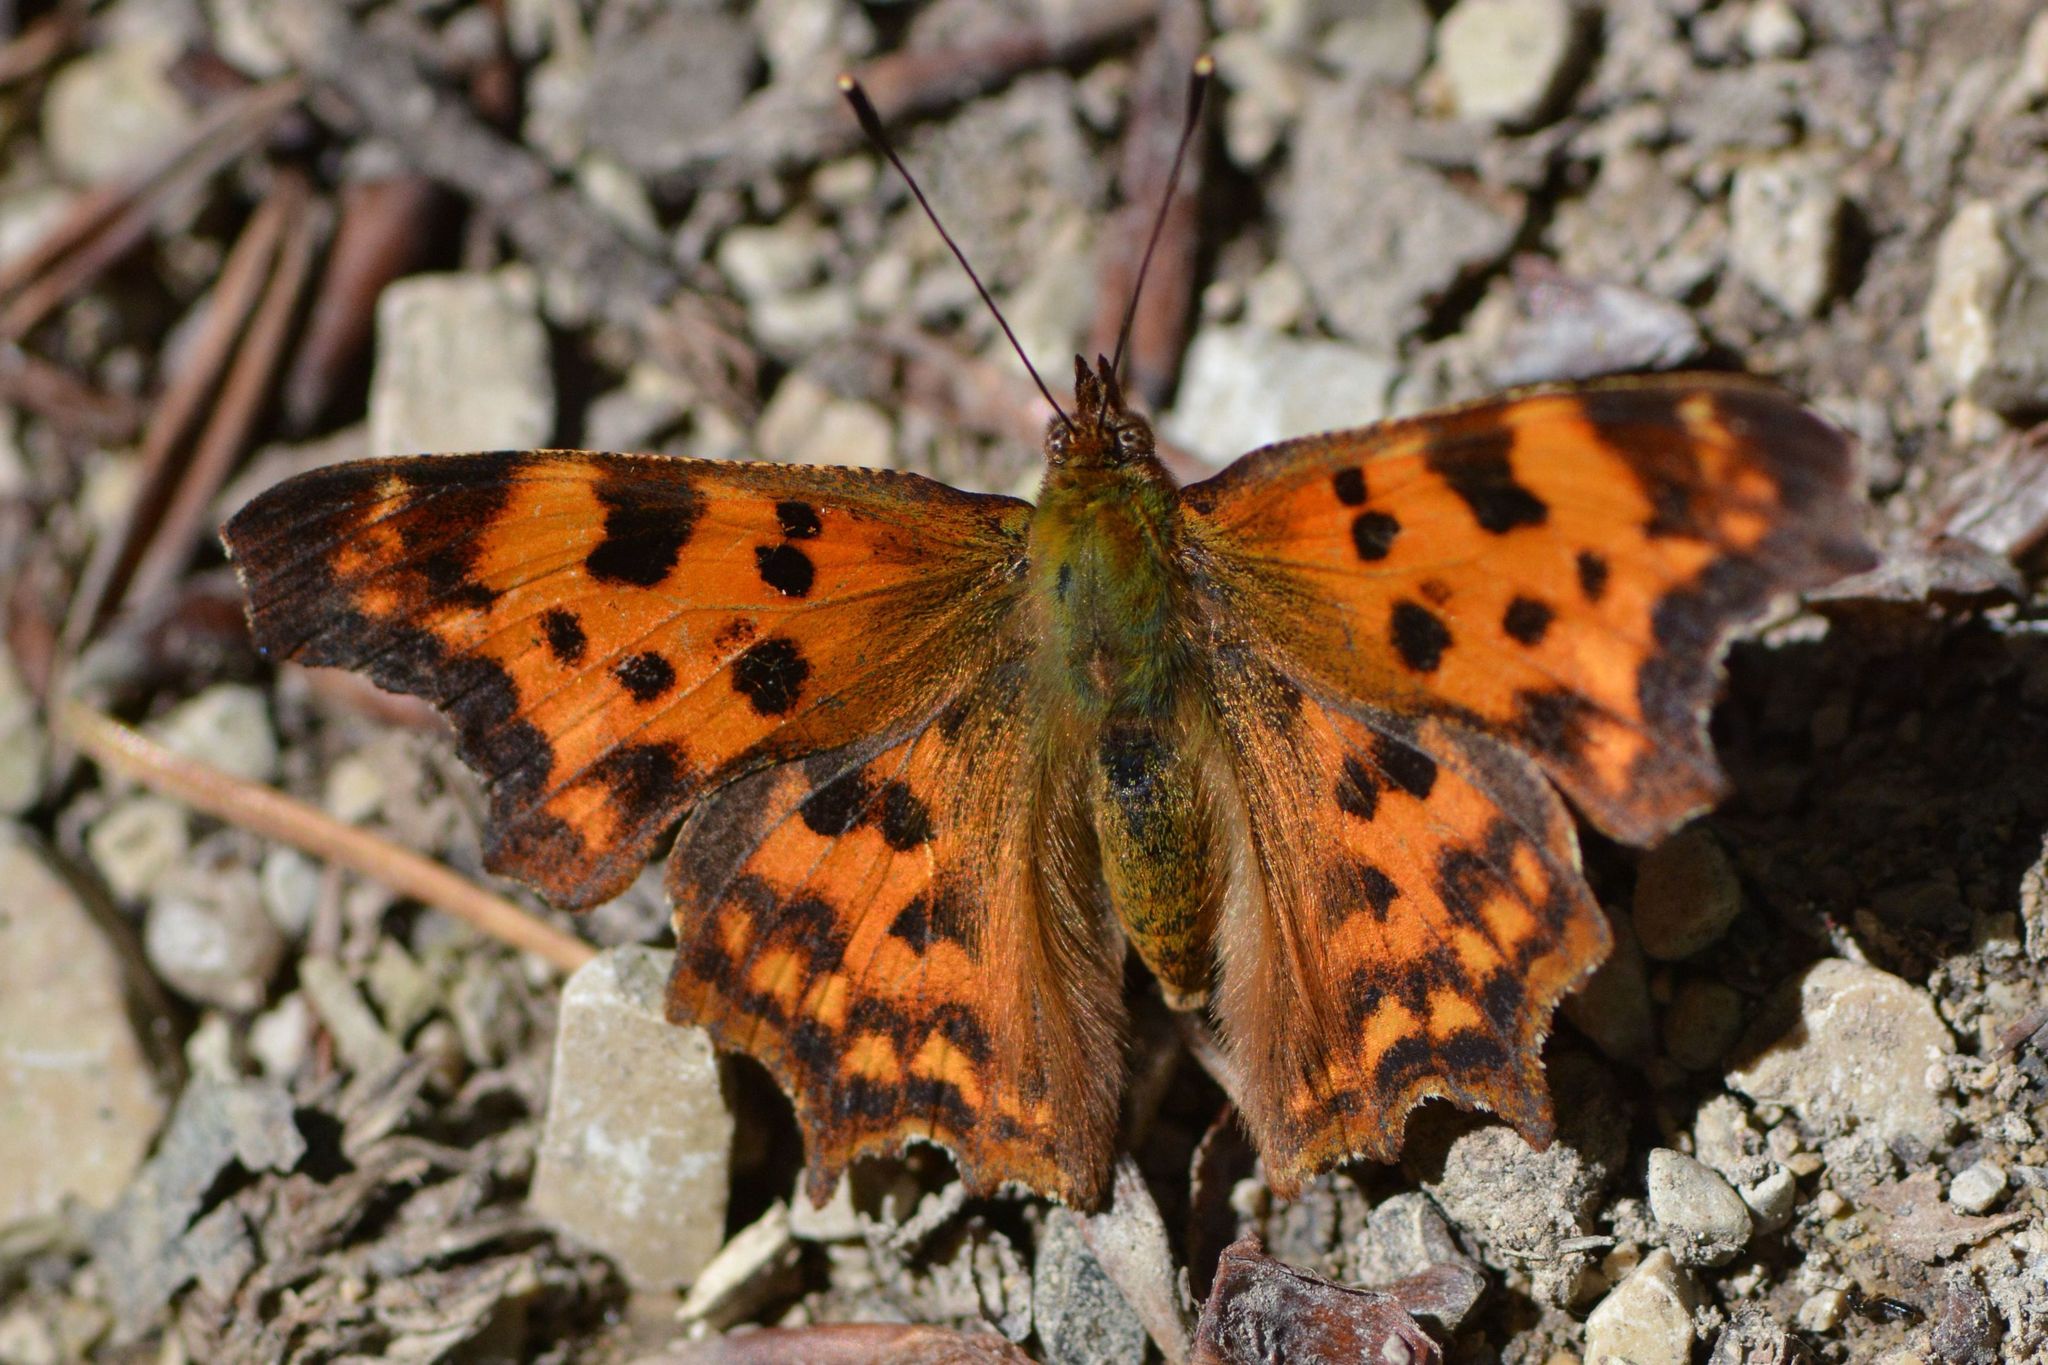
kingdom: Animalia
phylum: Arthropoda
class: Insecta
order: Lepidoptera
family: Nymphalidae
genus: Polygonia
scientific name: Polygonia c-album
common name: Comma
